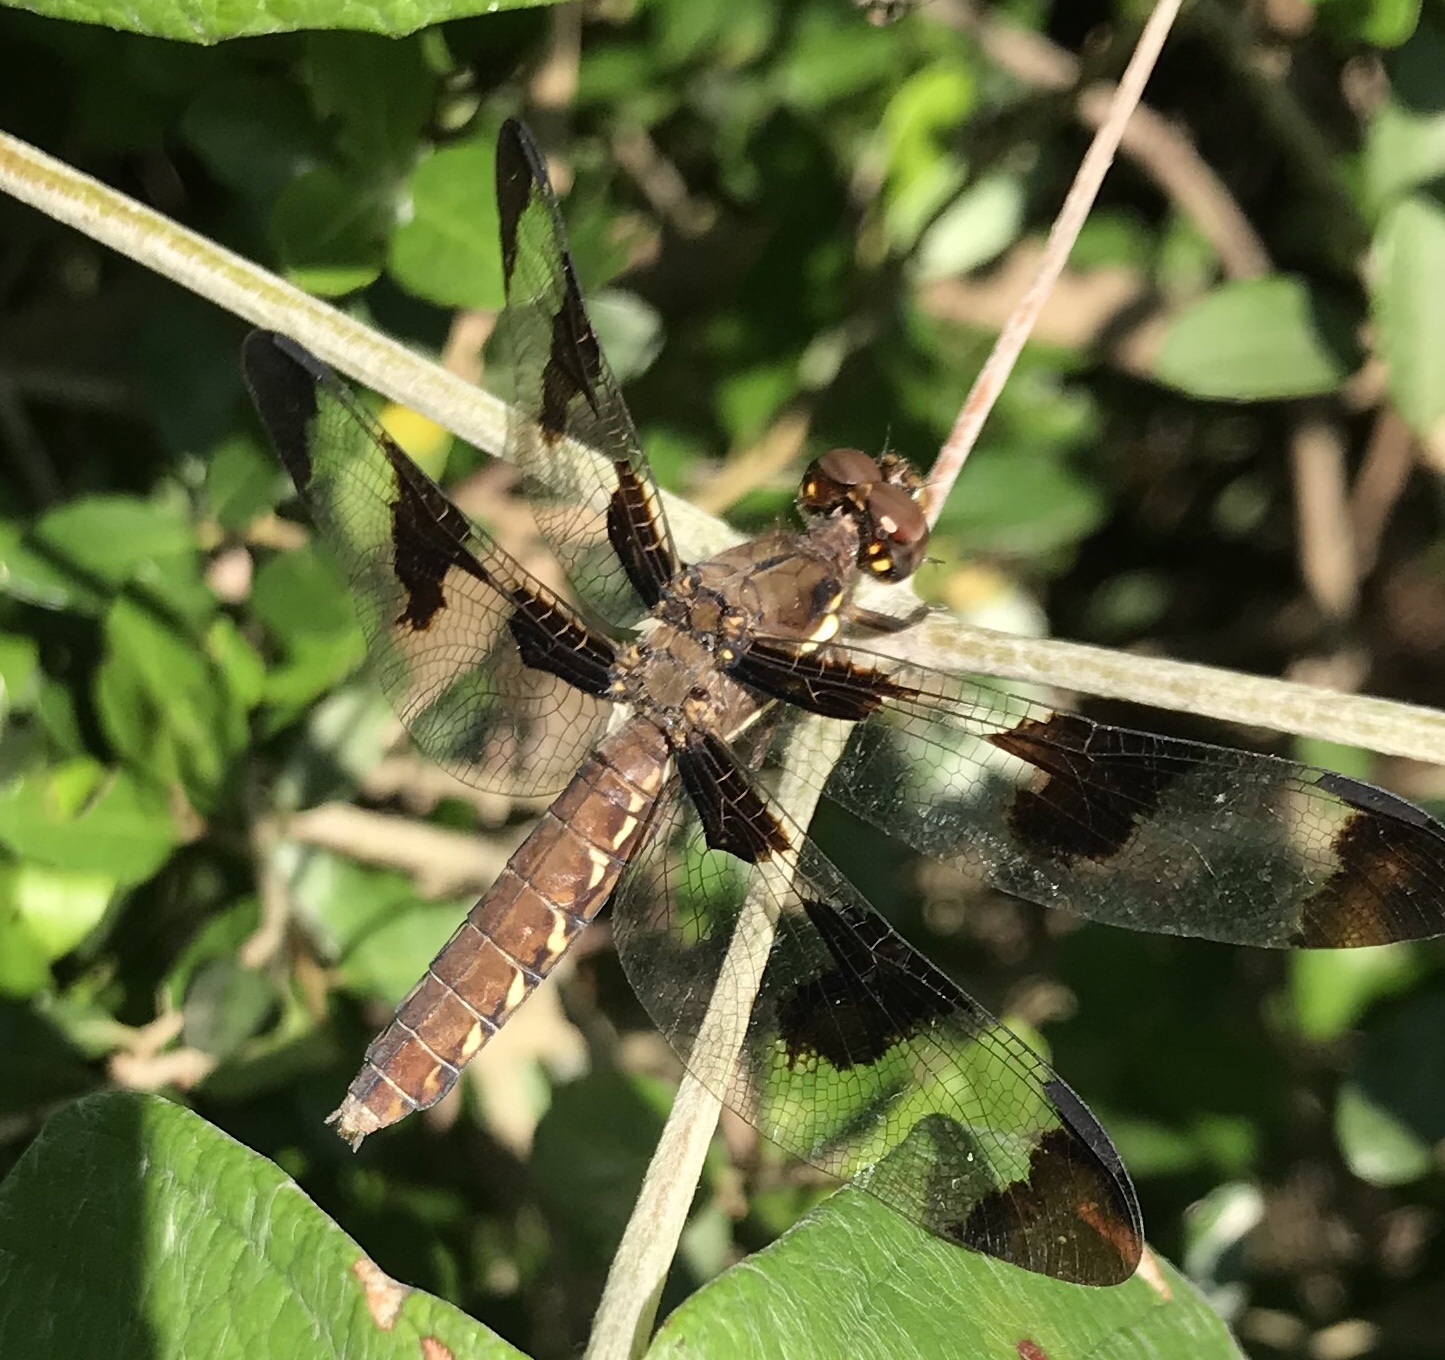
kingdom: Animalia
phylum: Arthropoda
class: Insecta
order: Odonata
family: Libellulidae
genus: Plathemis
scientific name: Plathemis lydia
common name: Common whitetail
